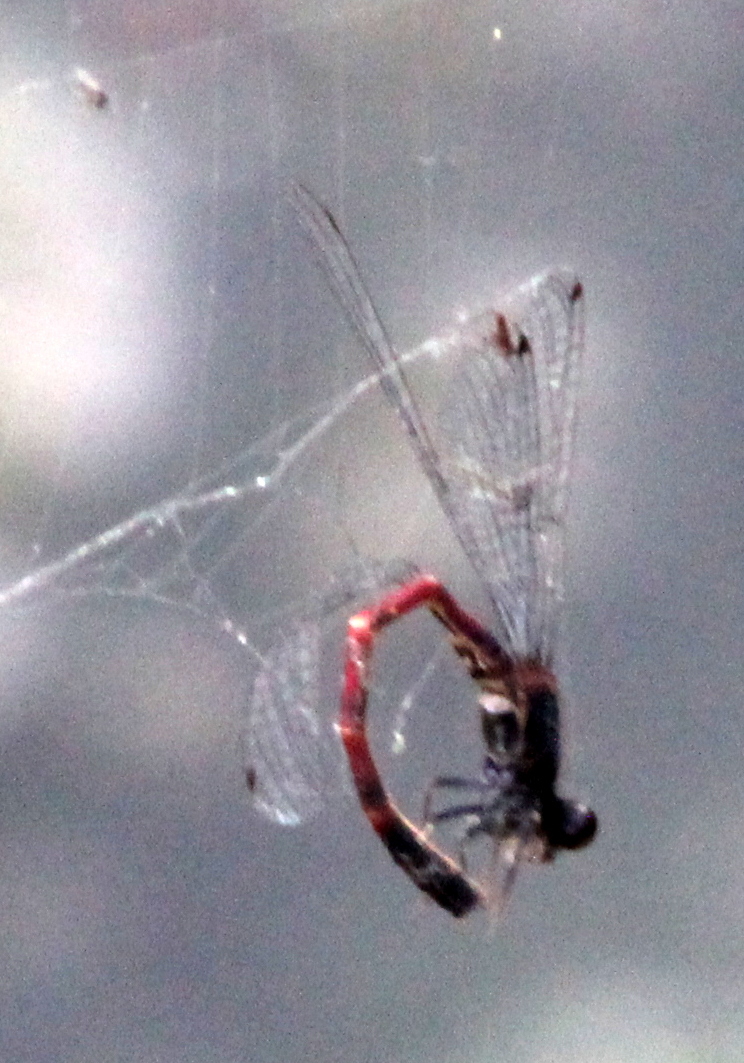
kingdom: Animalia
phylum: Arthropoda
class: Insecta
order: Odonata
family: Coenagrionidae
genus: Amphiagrion
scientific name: Amphiagrion abbreviatum
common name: Western red damsel
